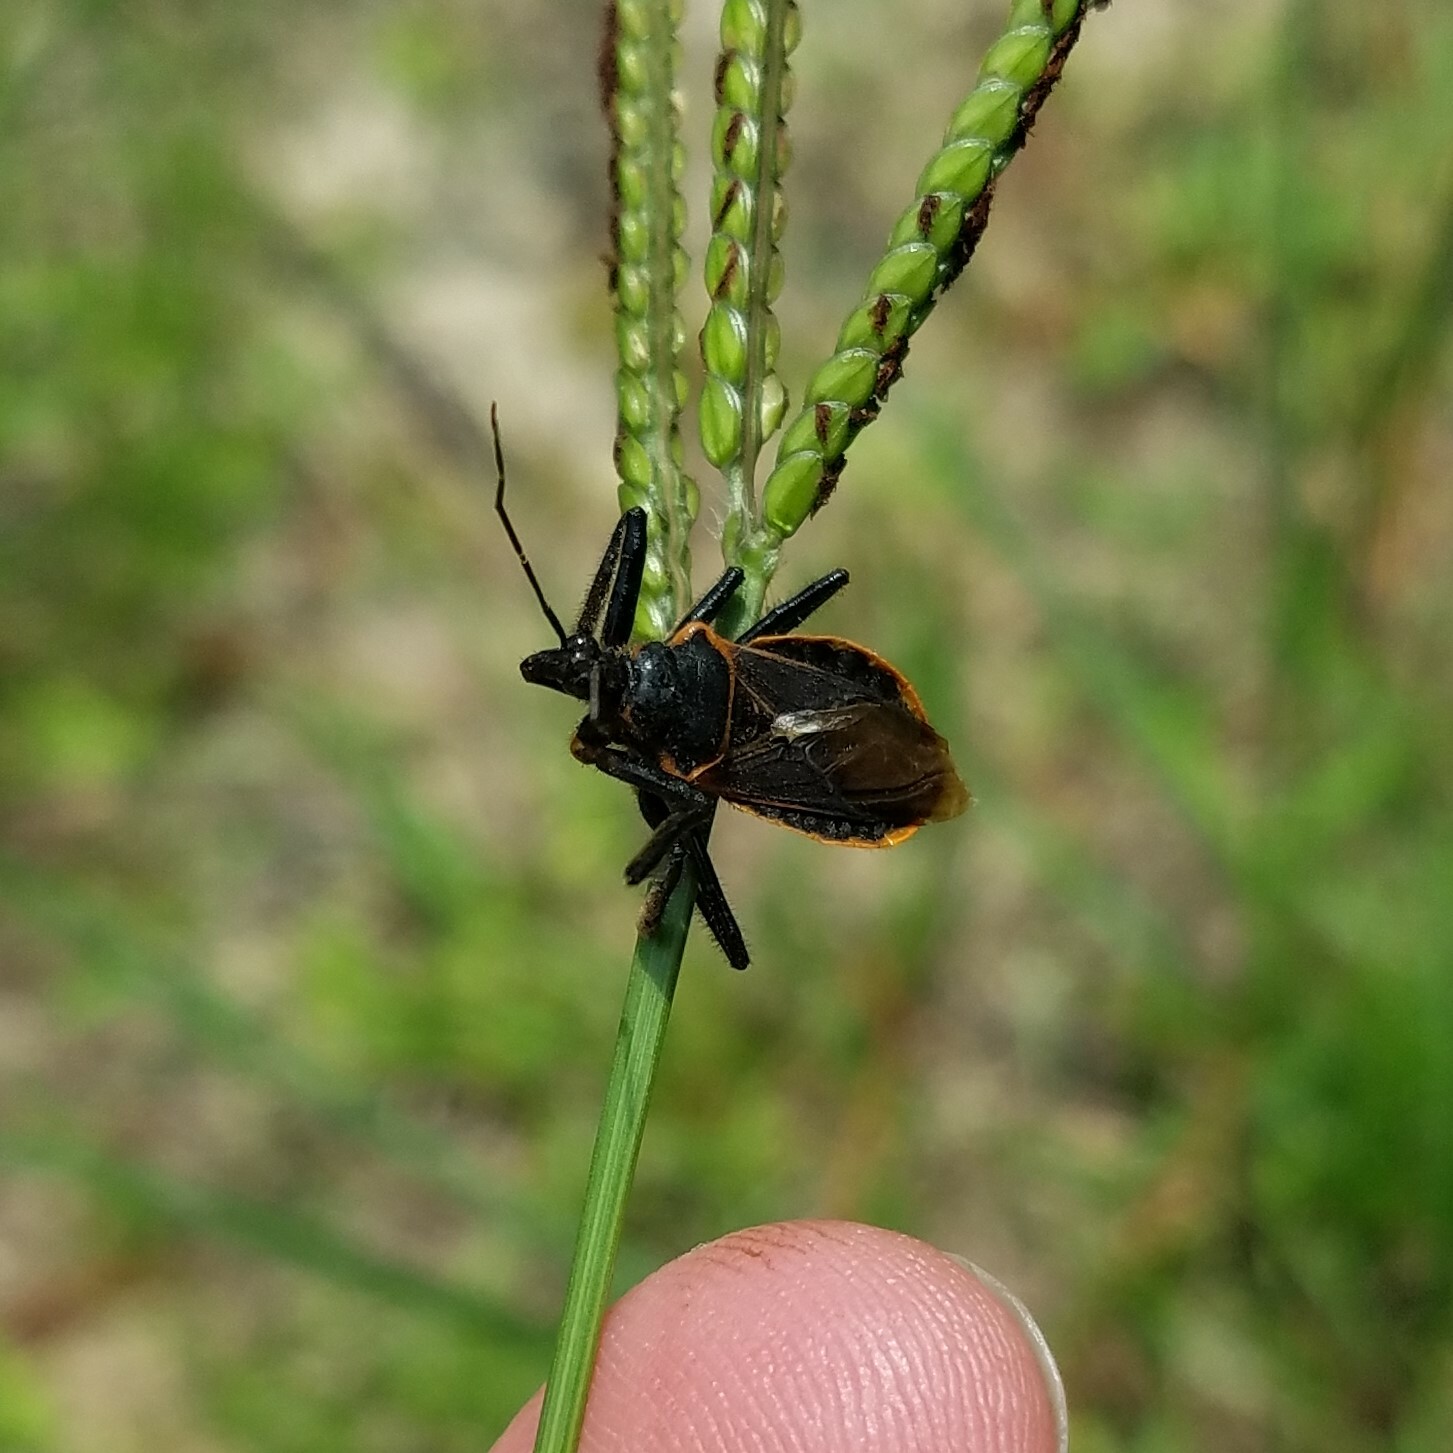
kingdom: Animalia
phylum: Arthropoda
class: Insecta
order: Hemiptera
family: Reduviidae
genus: Apiomerus
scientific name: Apiomerus crassipes
